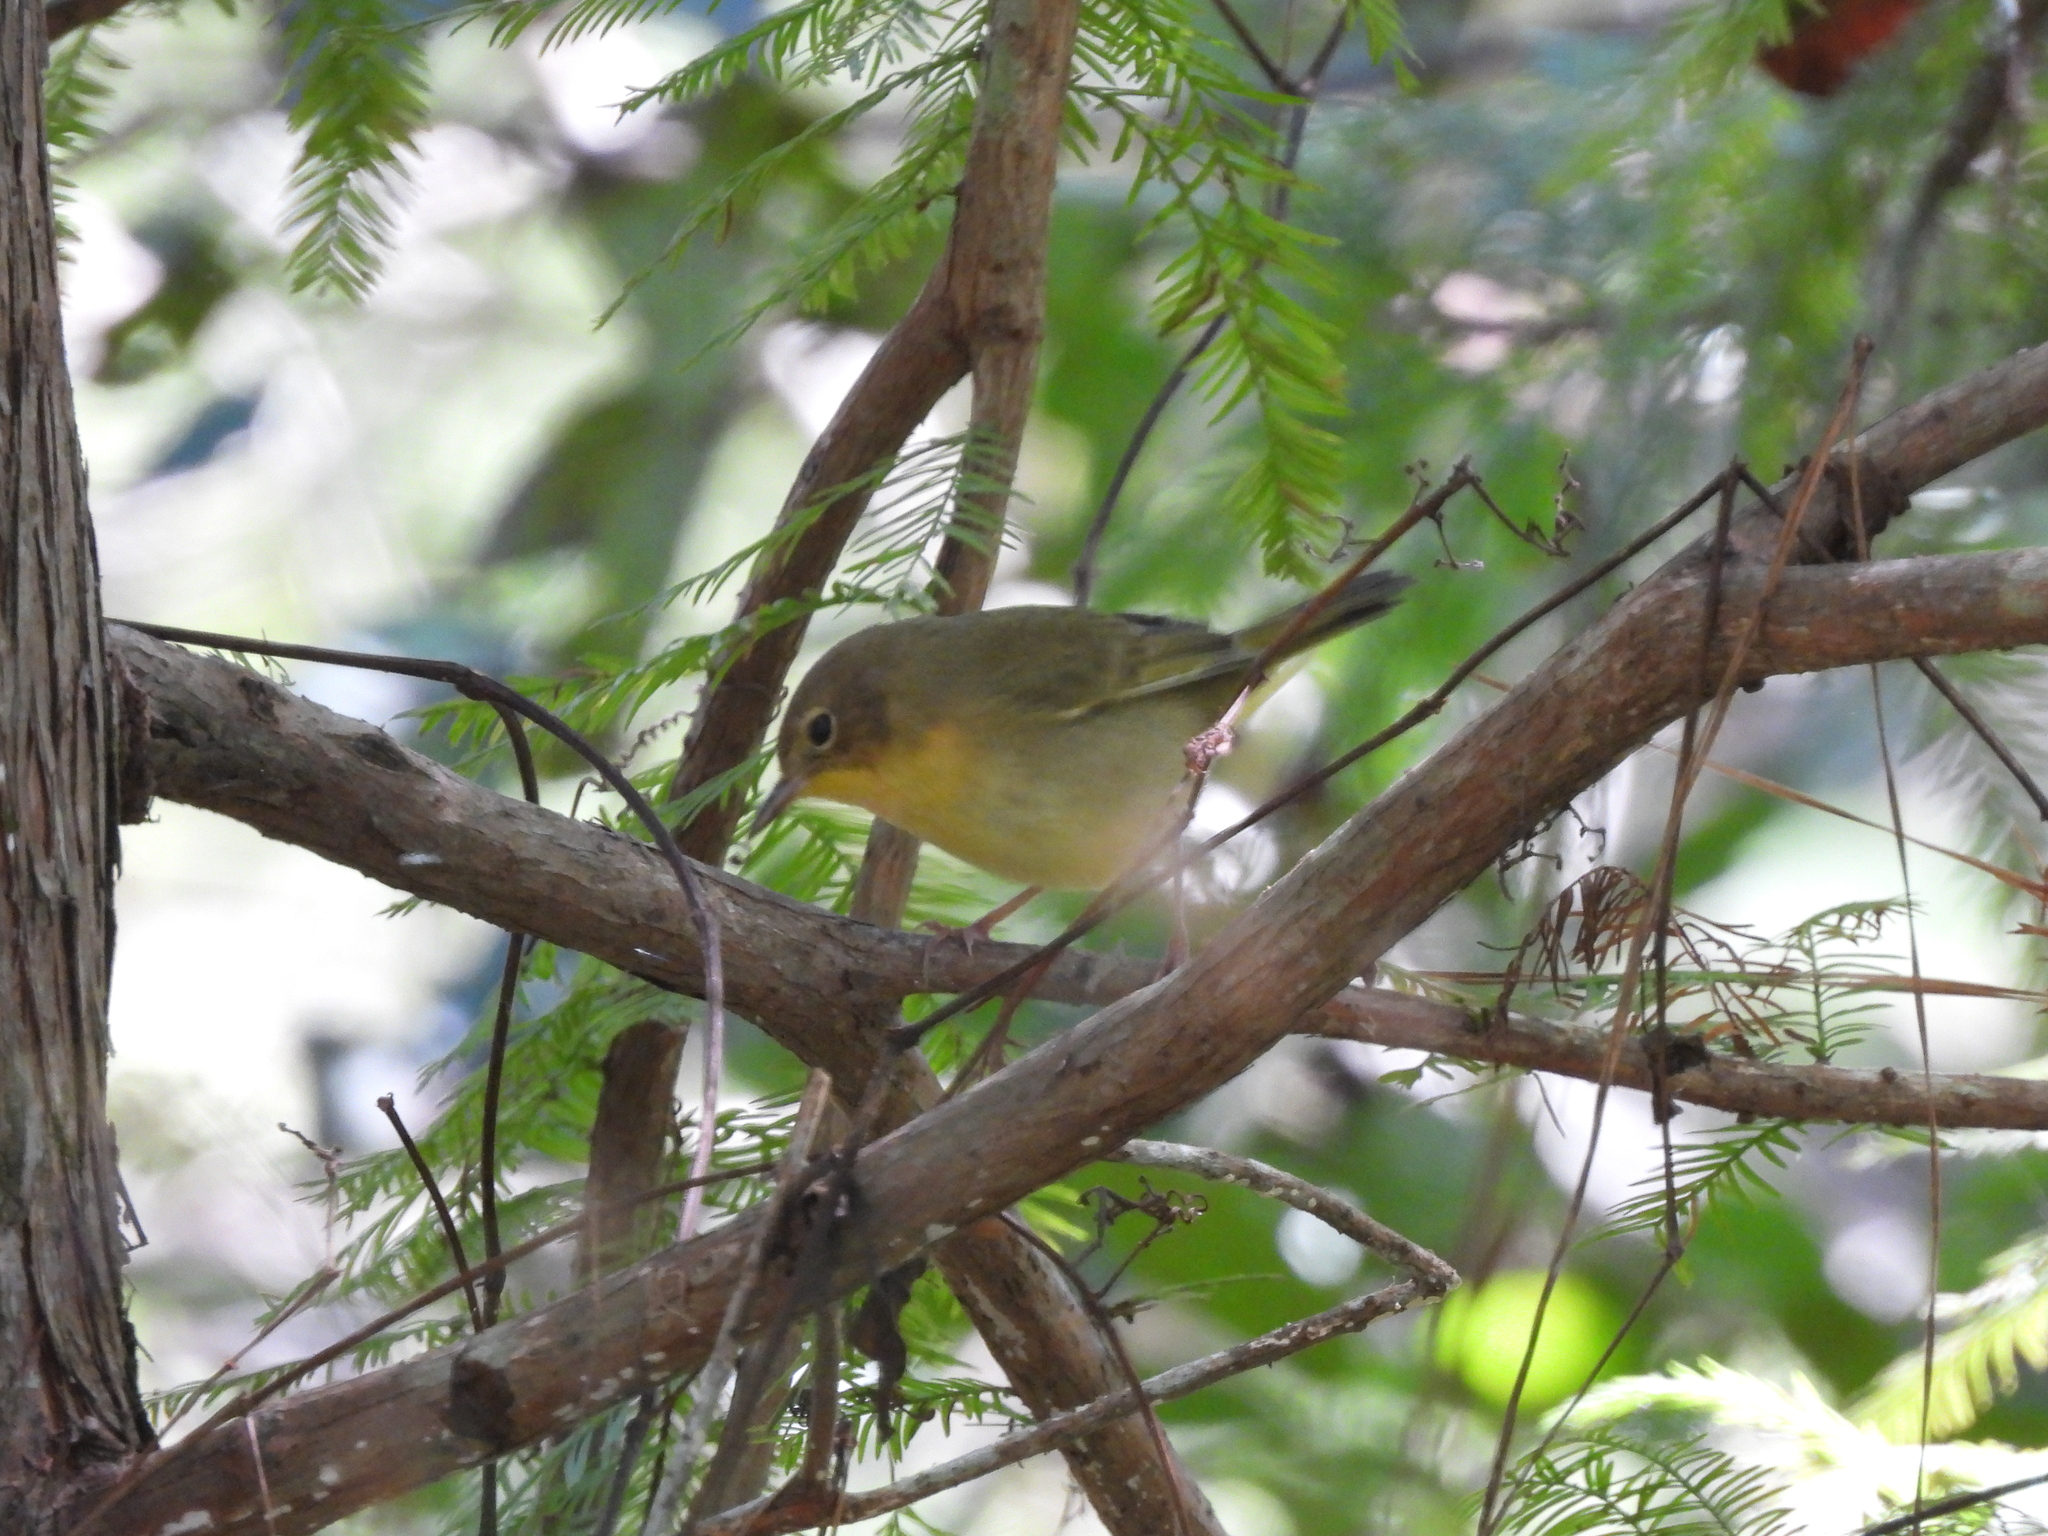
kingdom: Animalia
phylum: Chordata
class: Aves
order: Passeriformes
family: Parulidae
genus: Geothlypis
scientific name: Geothlypis trichas
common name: Common yellowthroat
